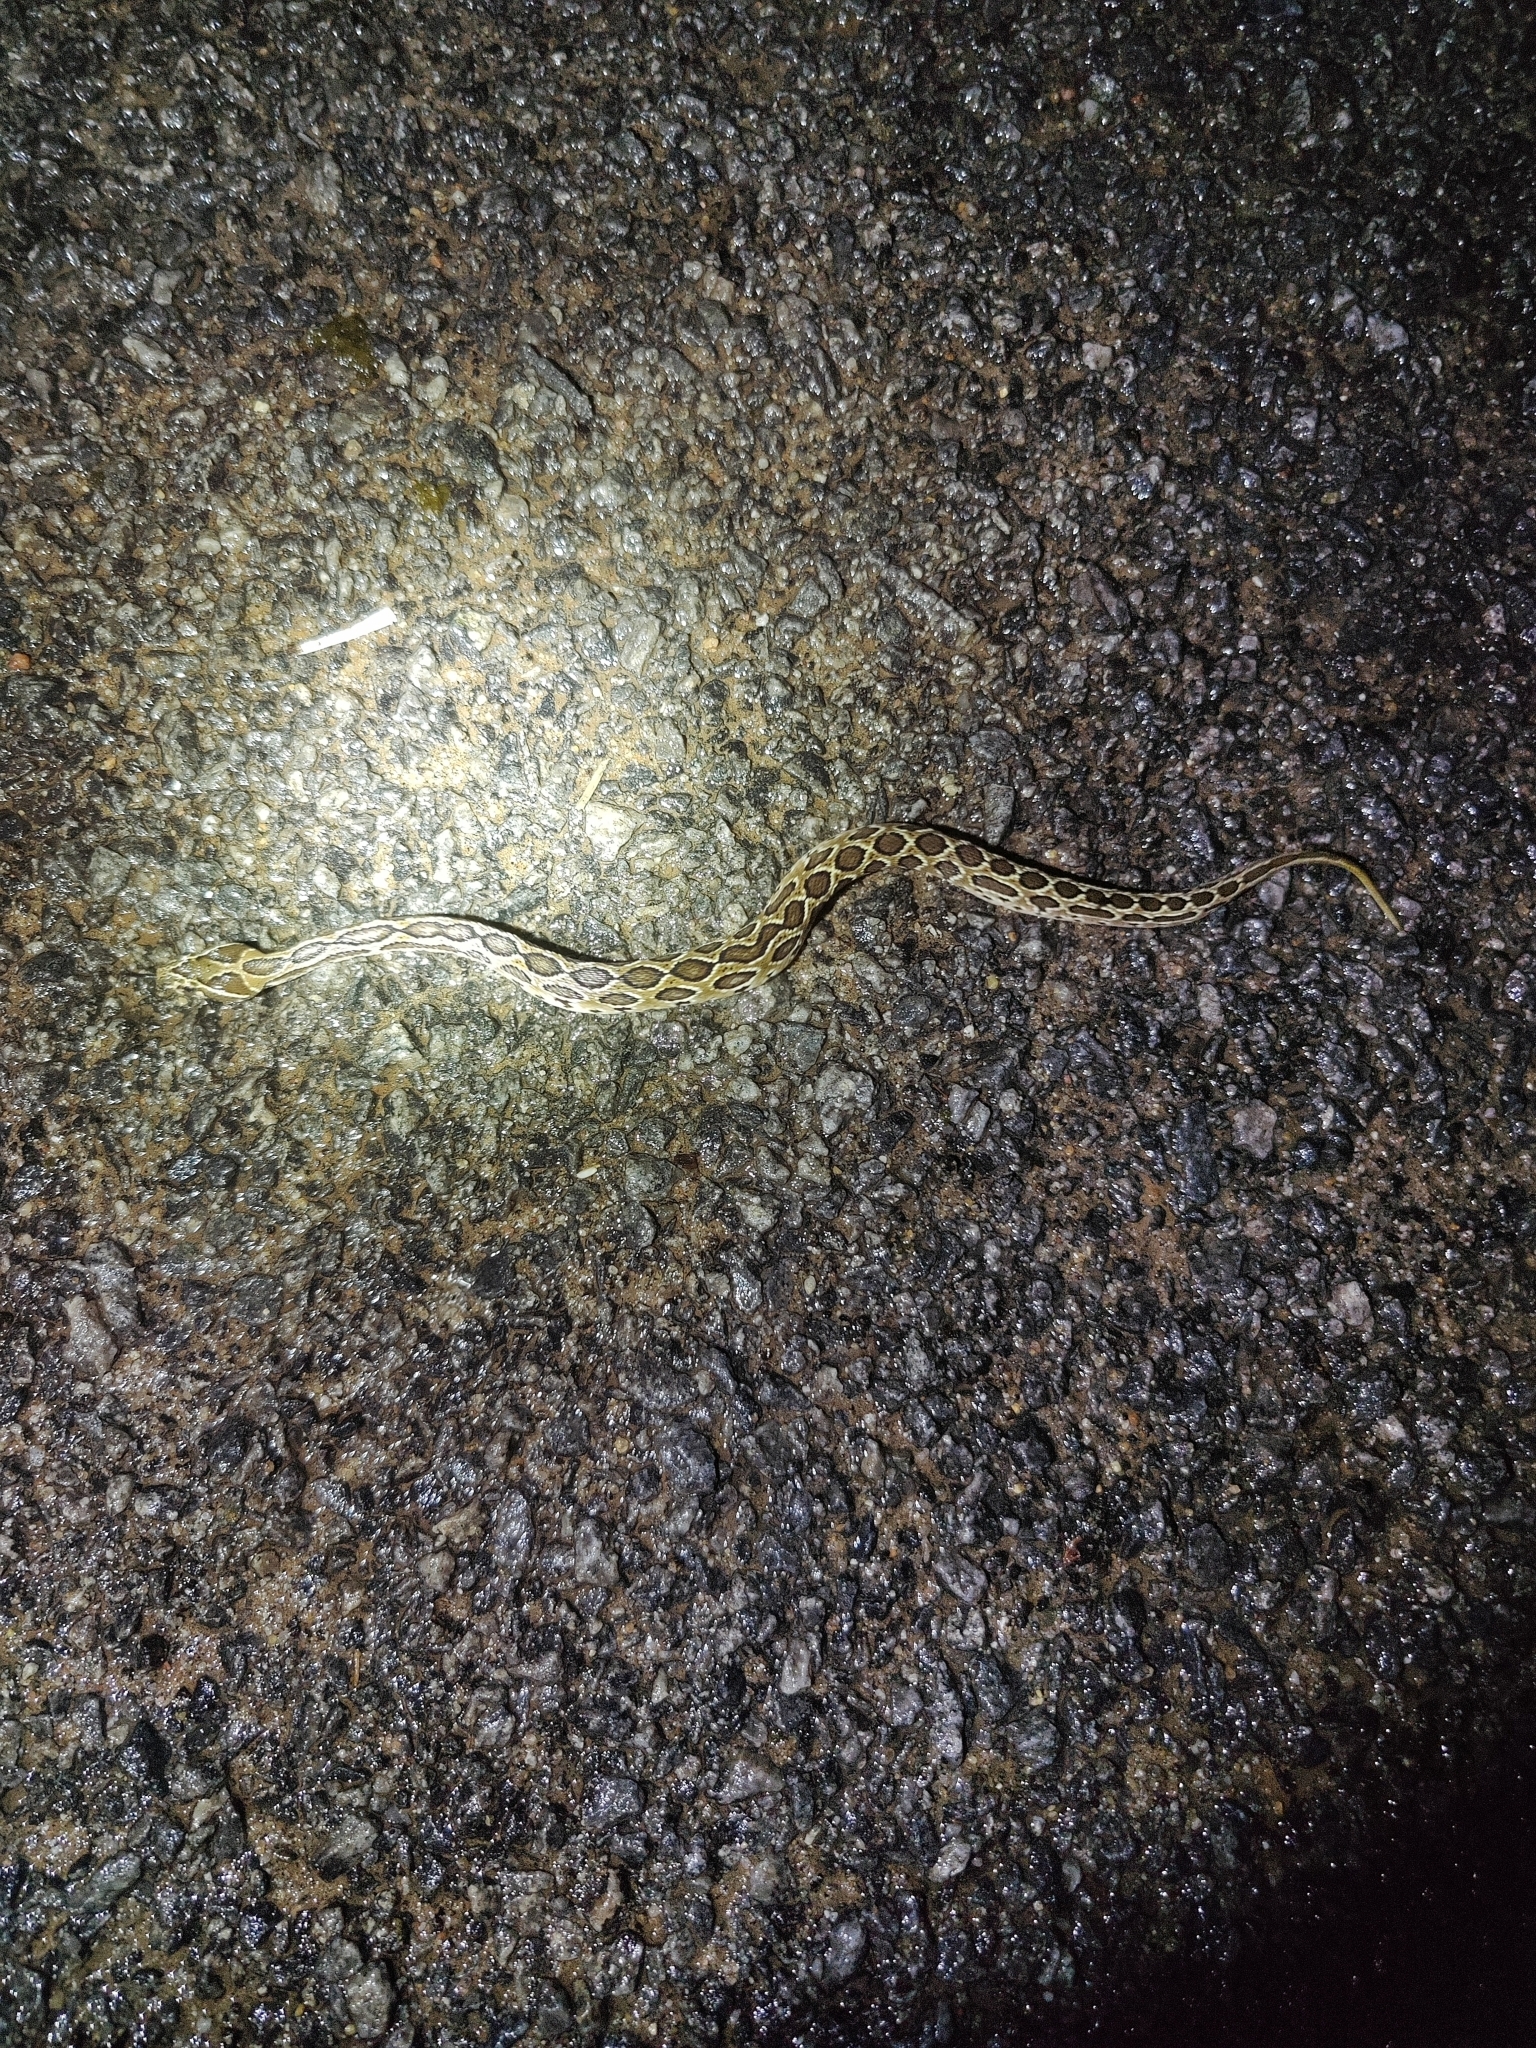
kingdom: Animalia
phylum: Chordata
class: Squamata
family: Viperidae
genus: Daboia
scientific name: Daboia russelii
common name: Western russel’s viper
